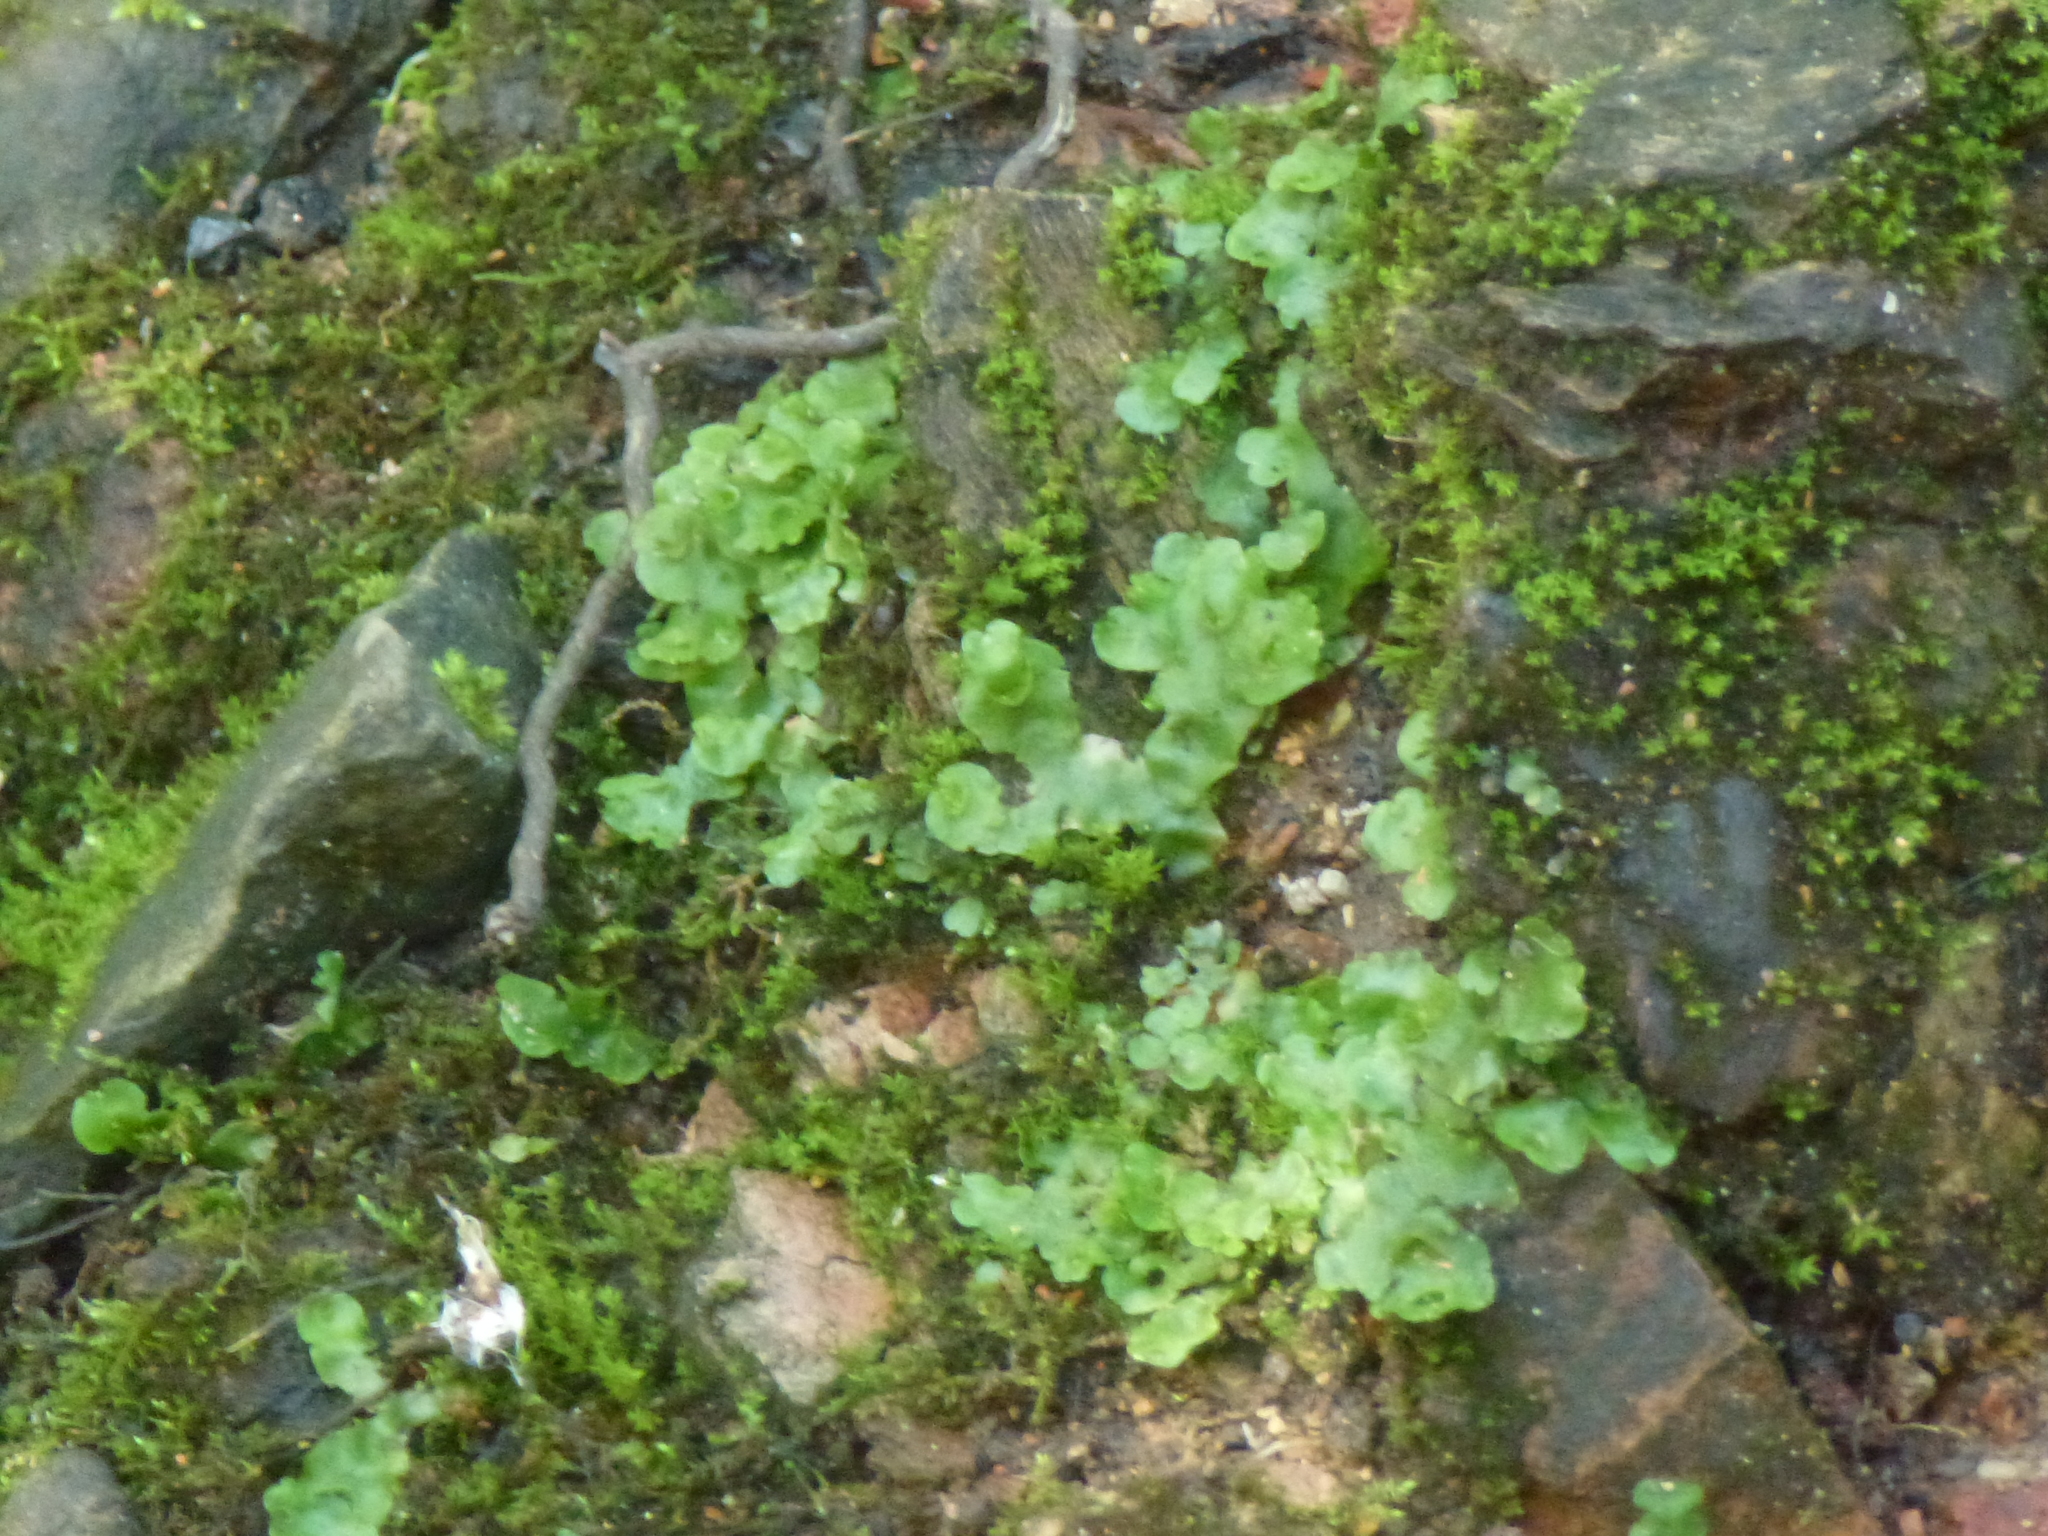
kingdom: Plantae
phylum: Marchantiophyta
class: Marchantiopsida
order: Lunulariales
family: Lunulariaceae
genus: Lunularia
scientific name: Lunularia cruciata
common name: Crescent-cup liverwort
